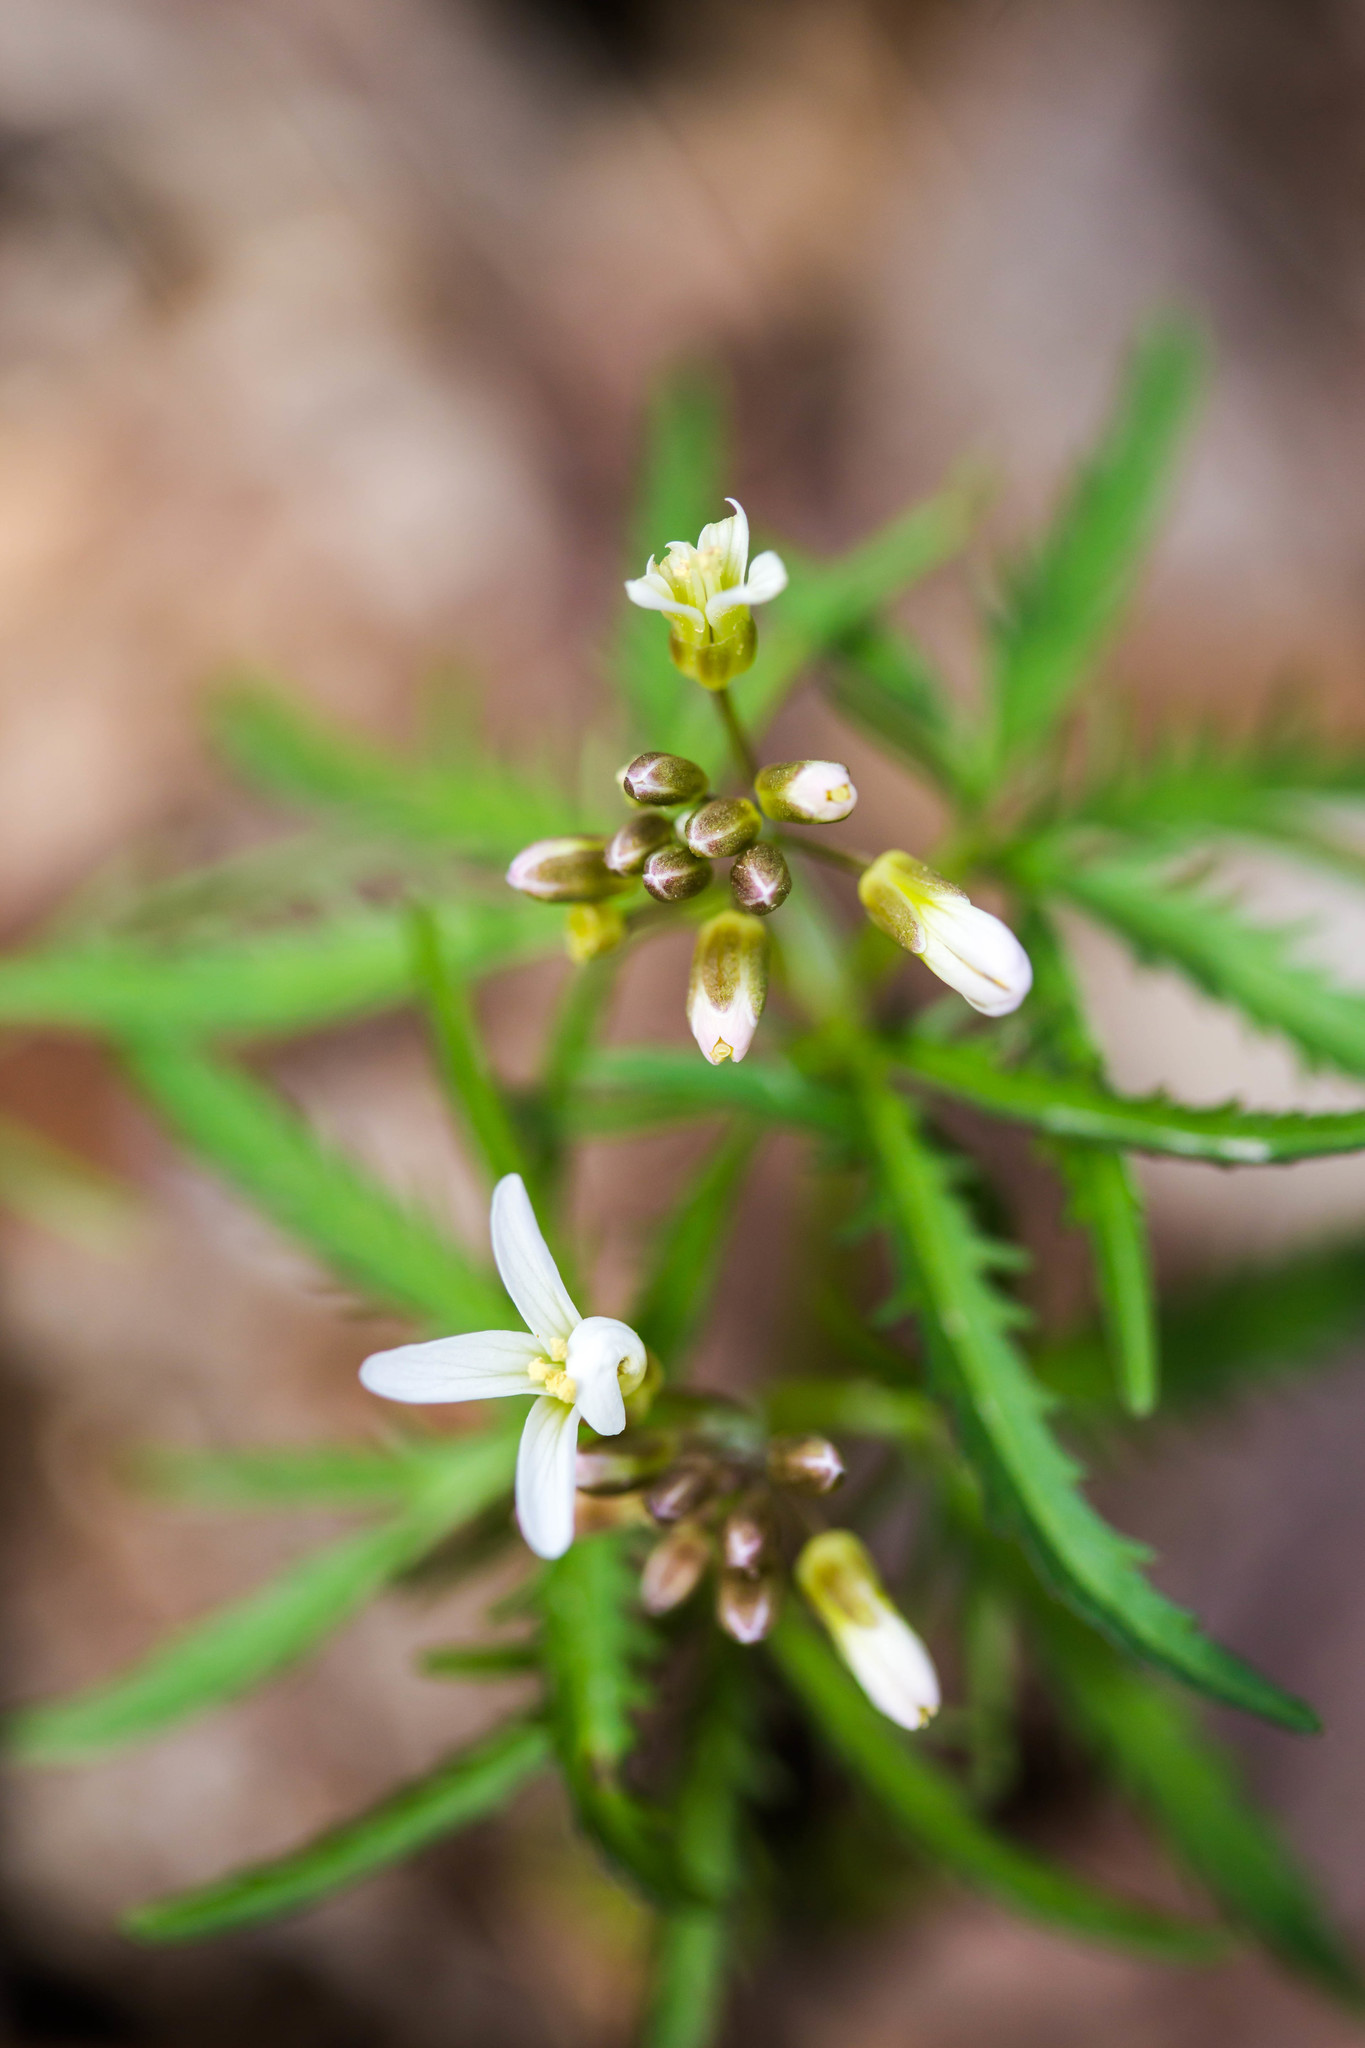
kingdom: Plantae
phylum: Tracheophyta
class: Magnoliopsida
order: Brassicales
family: Brassicaceae
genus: Cardamine
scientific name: Cardamine concatenata
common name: Cut-leaf toothcup
